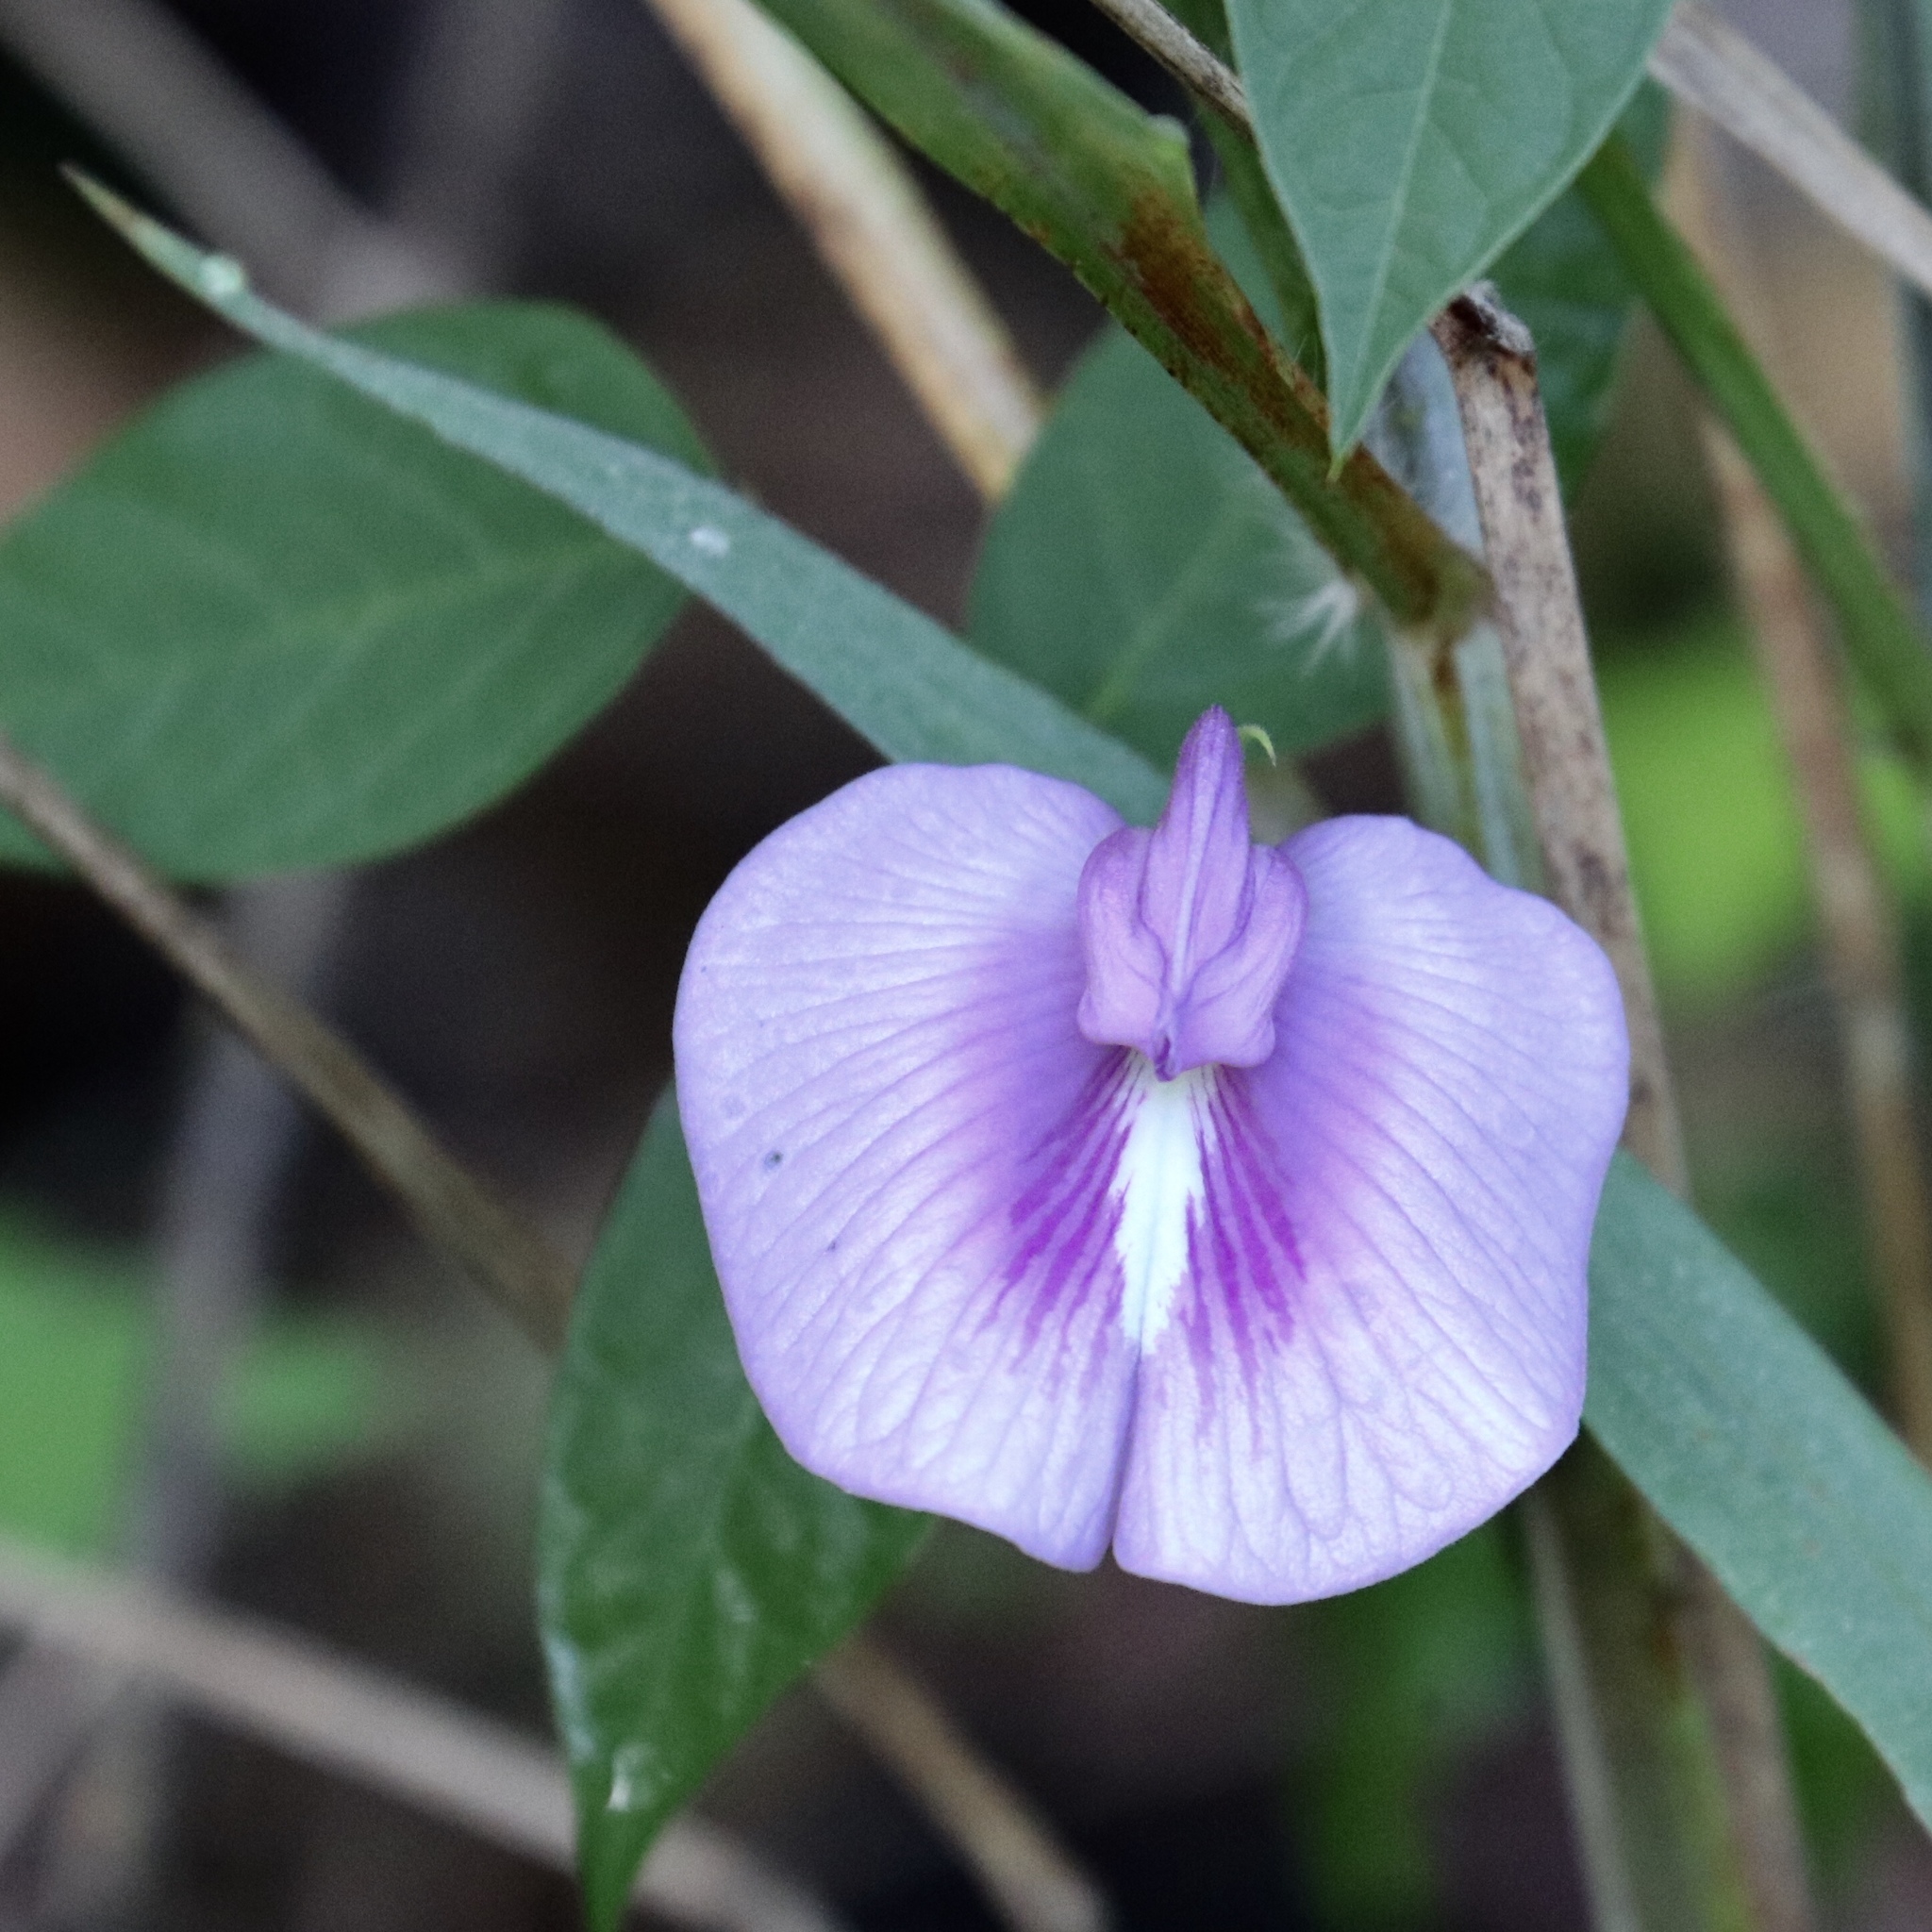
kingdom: Plantae
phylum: Tracheophyta
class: Magnoliopsida
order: Fabales
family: Fabaceae
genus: Centrosema
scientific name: Centrosema virginianum
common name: Butterfly-pea
